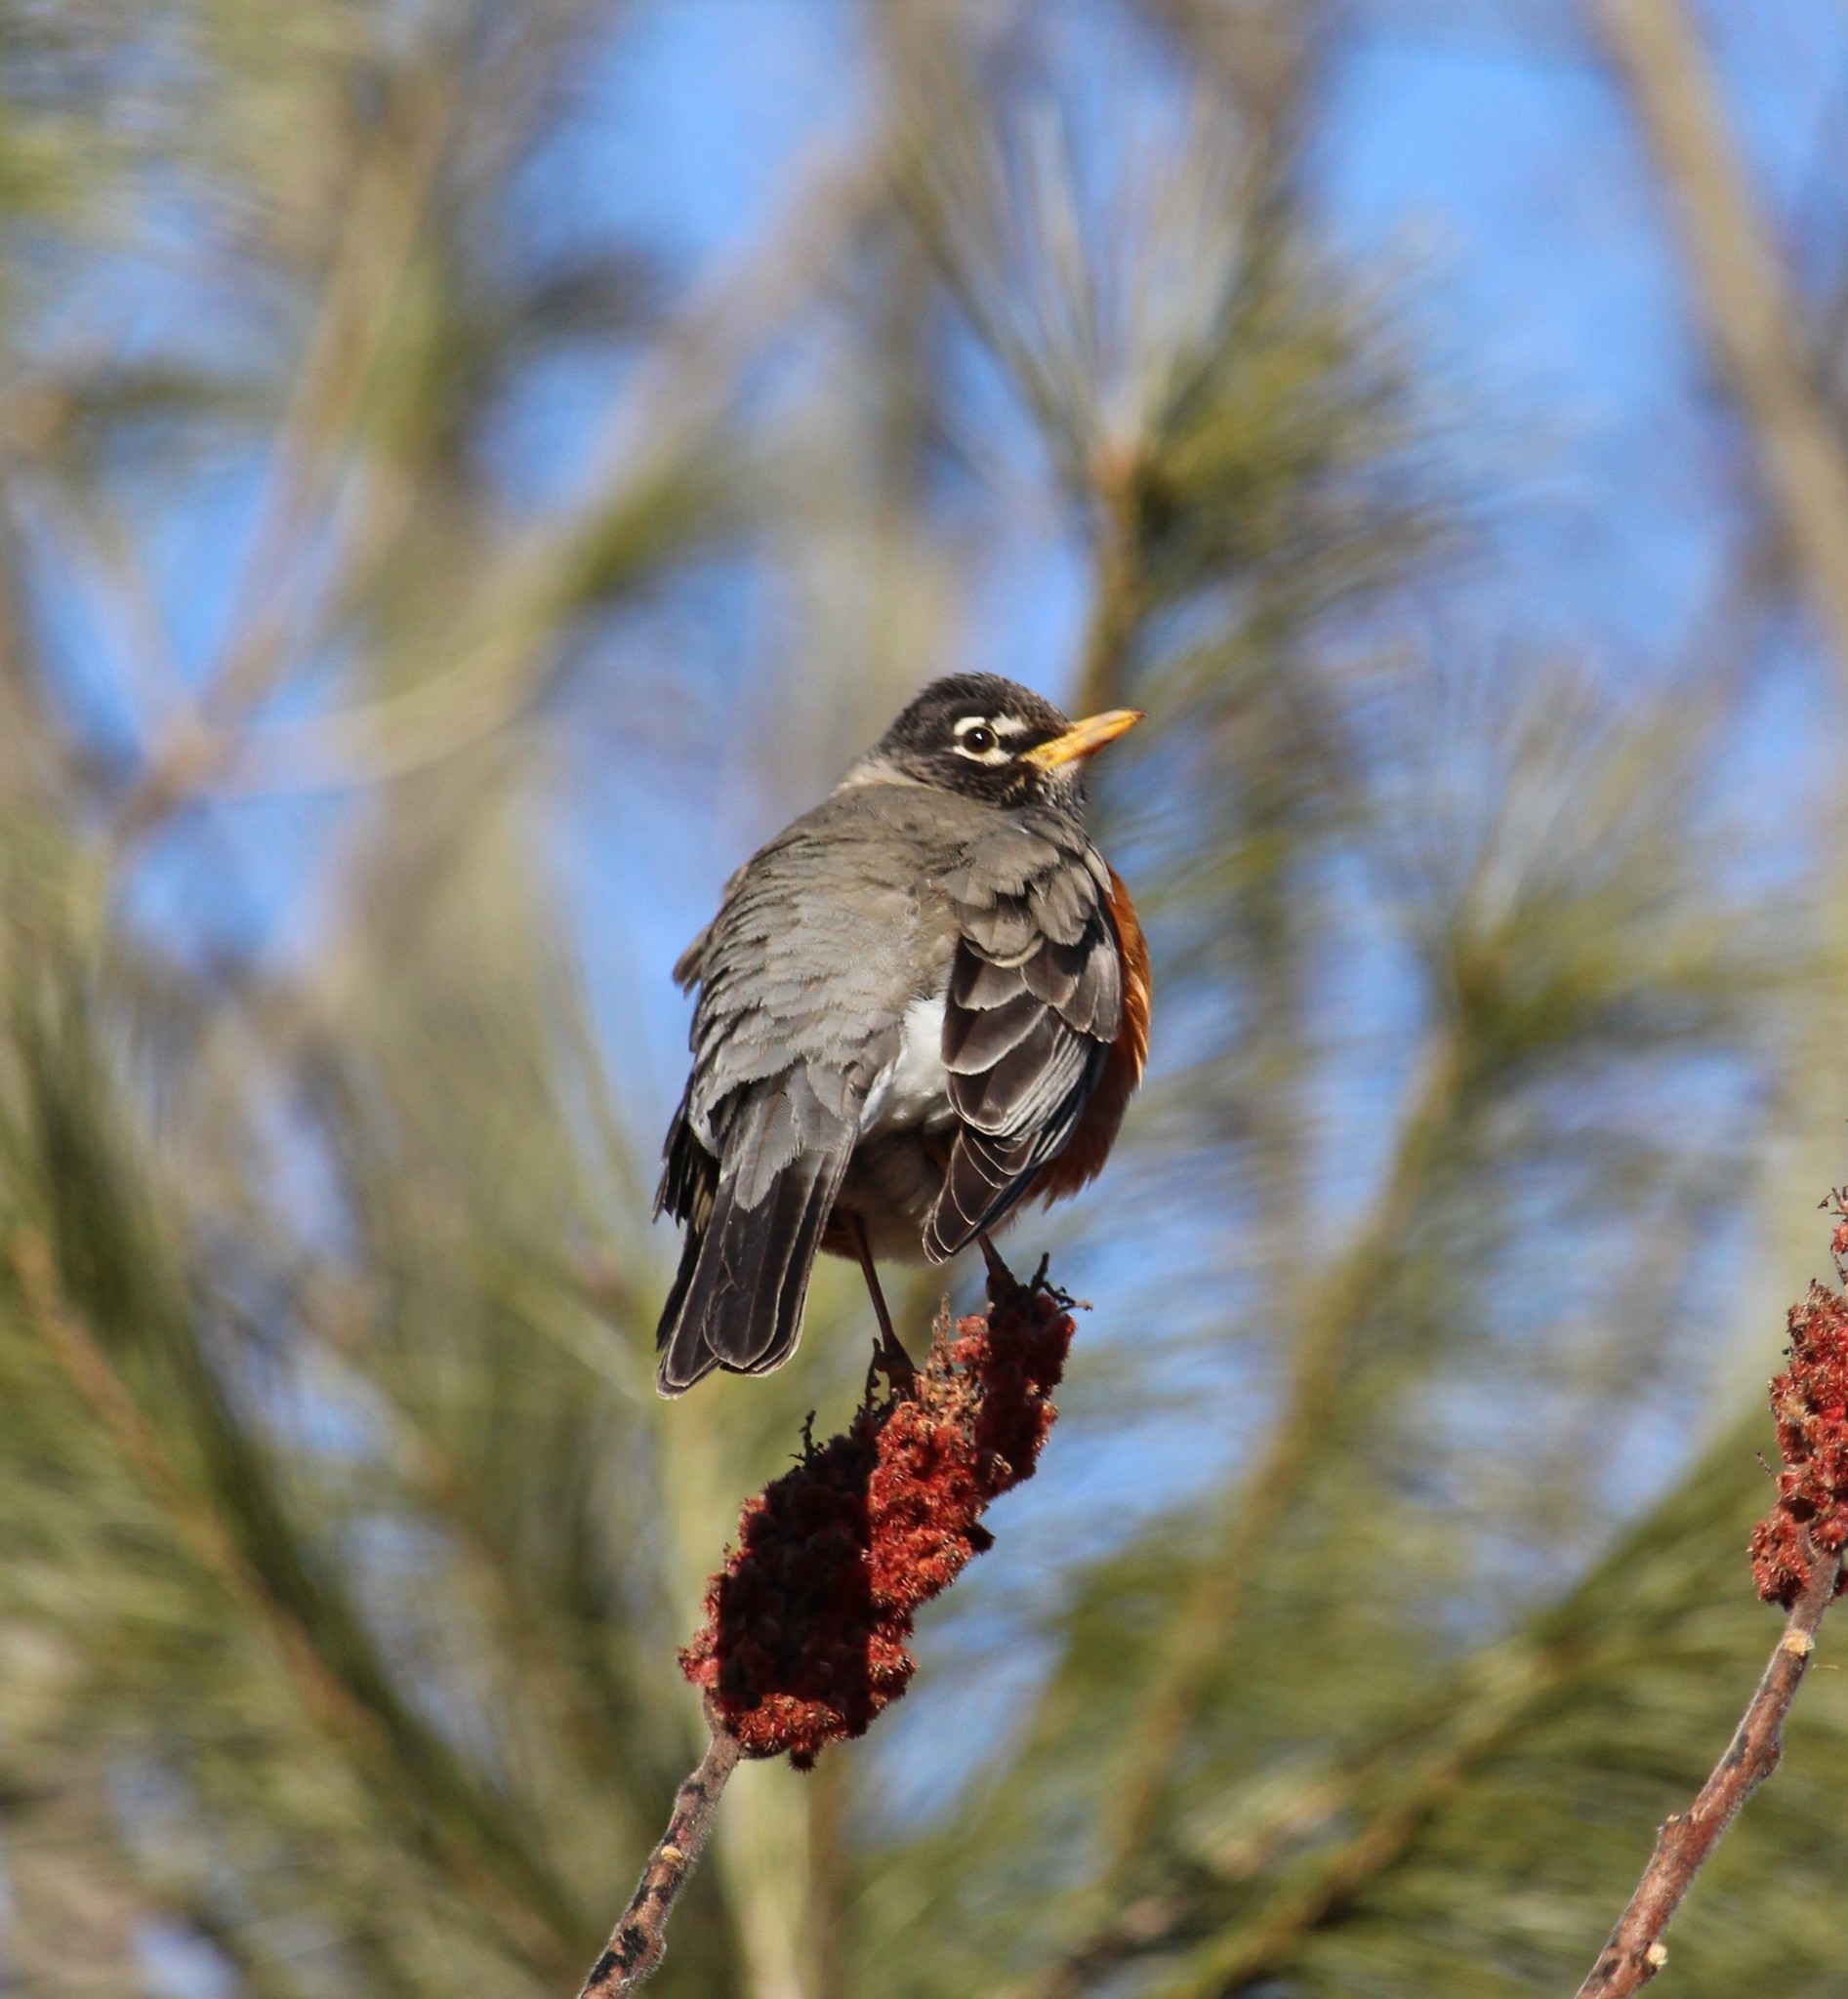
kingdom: Animalia
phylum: Chordata
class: Aves
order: Passeriformes
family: Turdidae
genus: Turdus
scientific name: Turdus migratorius
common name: American robin
